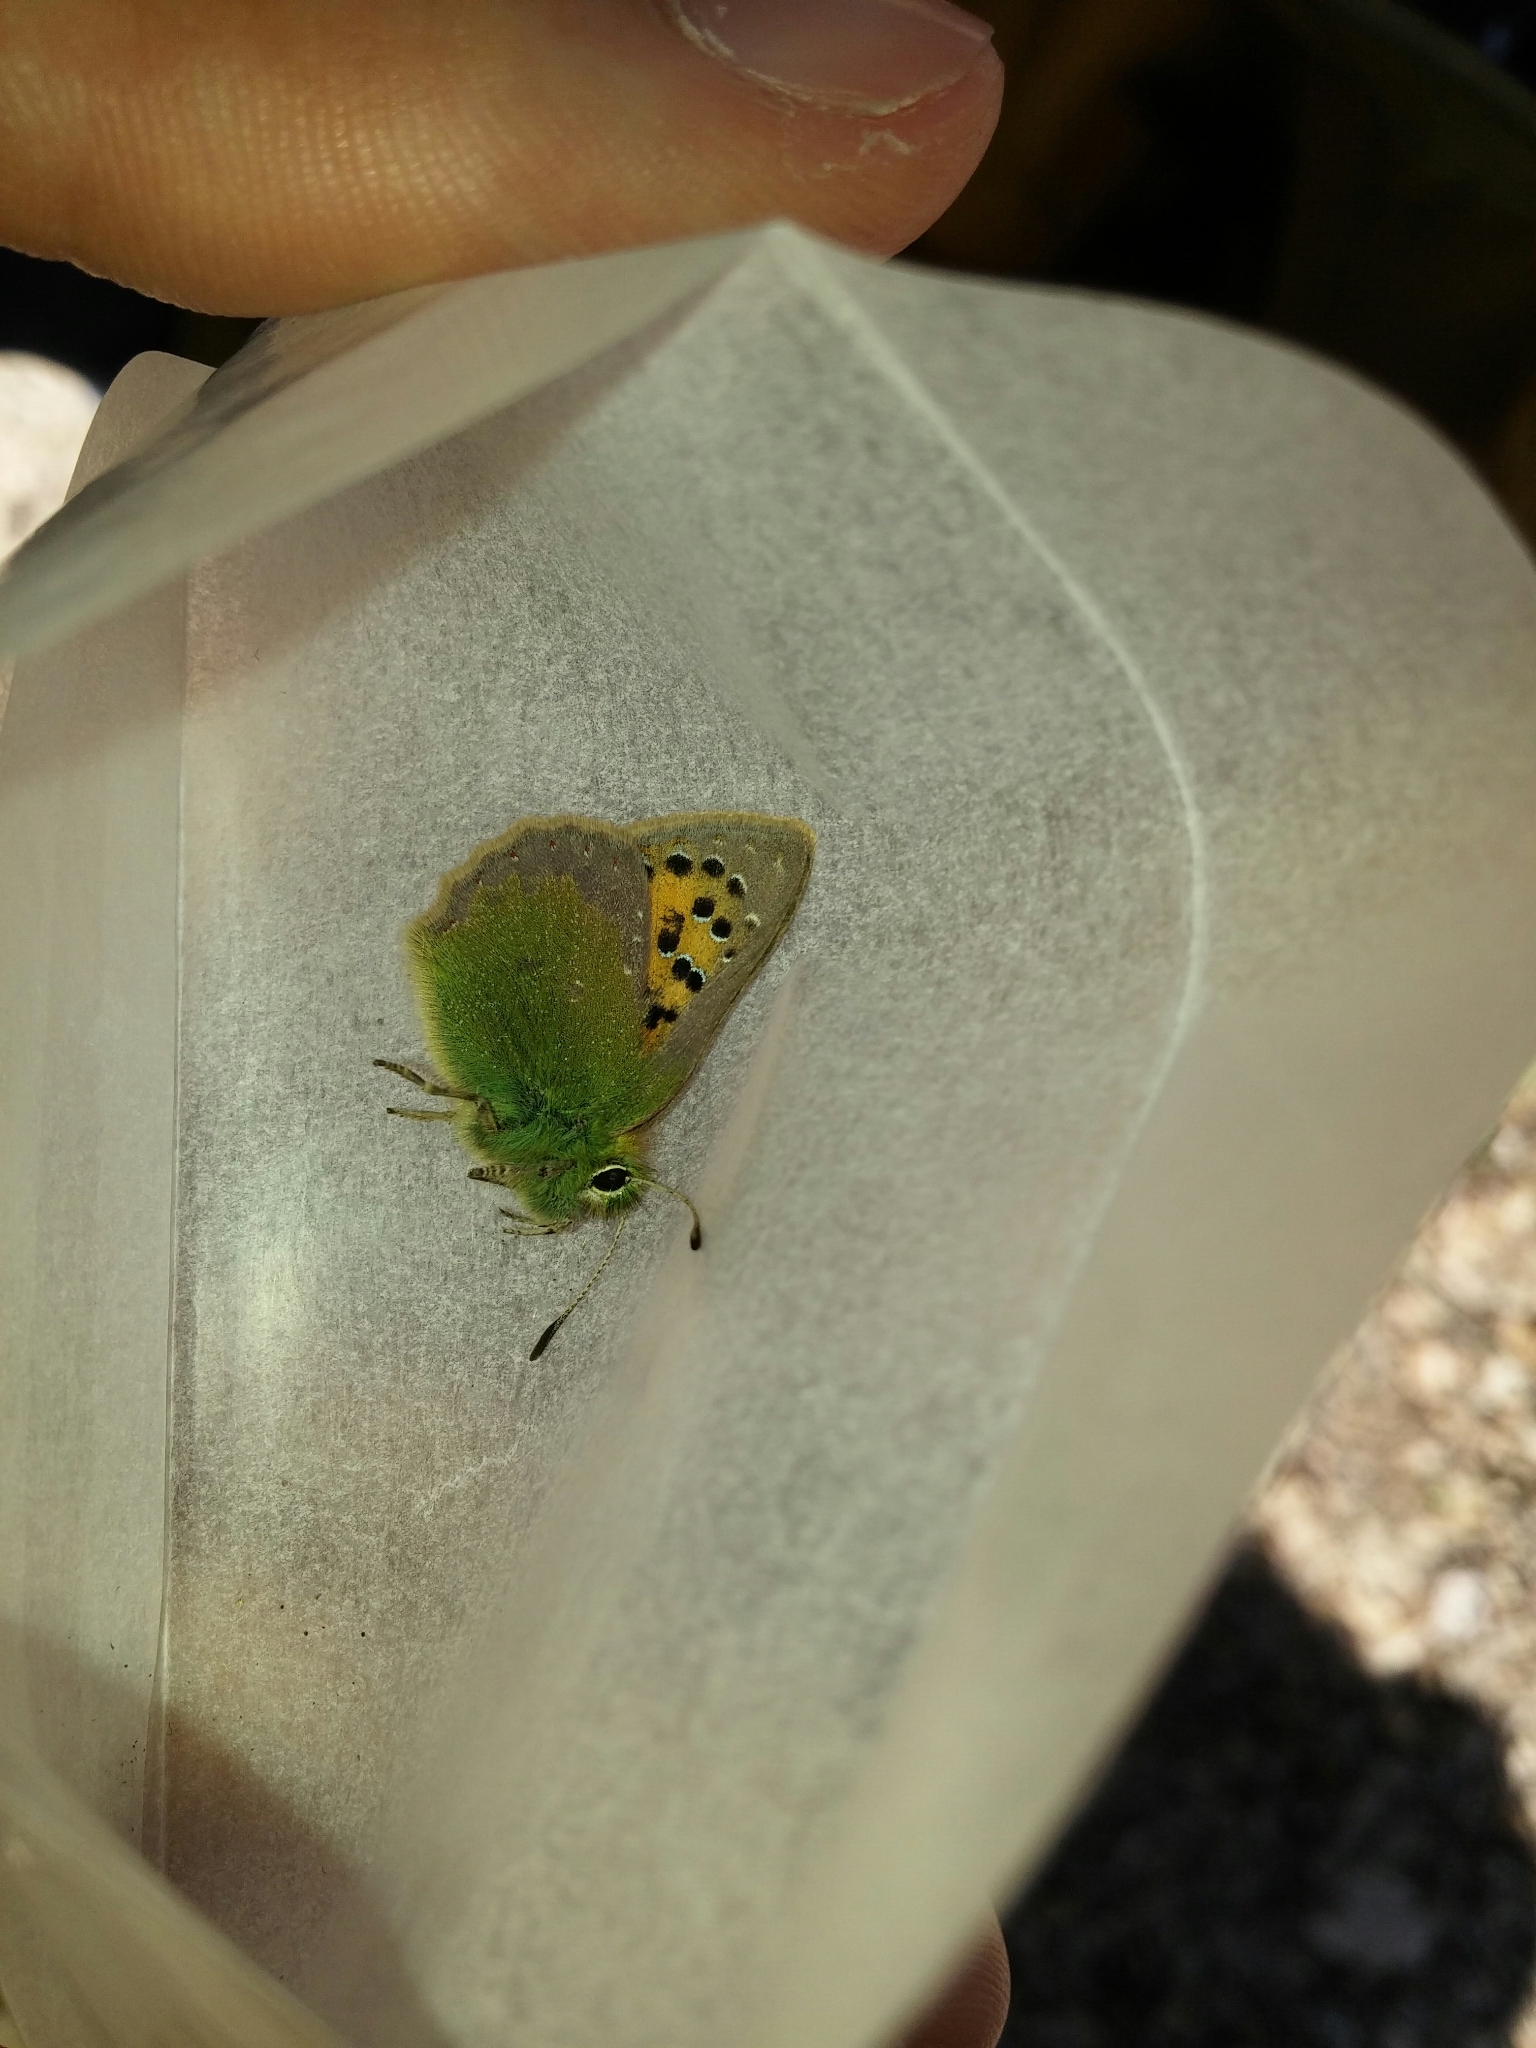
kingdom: Animalia
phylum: Arthropoda
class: Insecta
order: Lepidoptera
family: Lycaenidae
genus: Tomares
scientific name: Tomares ballus
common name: Provence hairstreak
